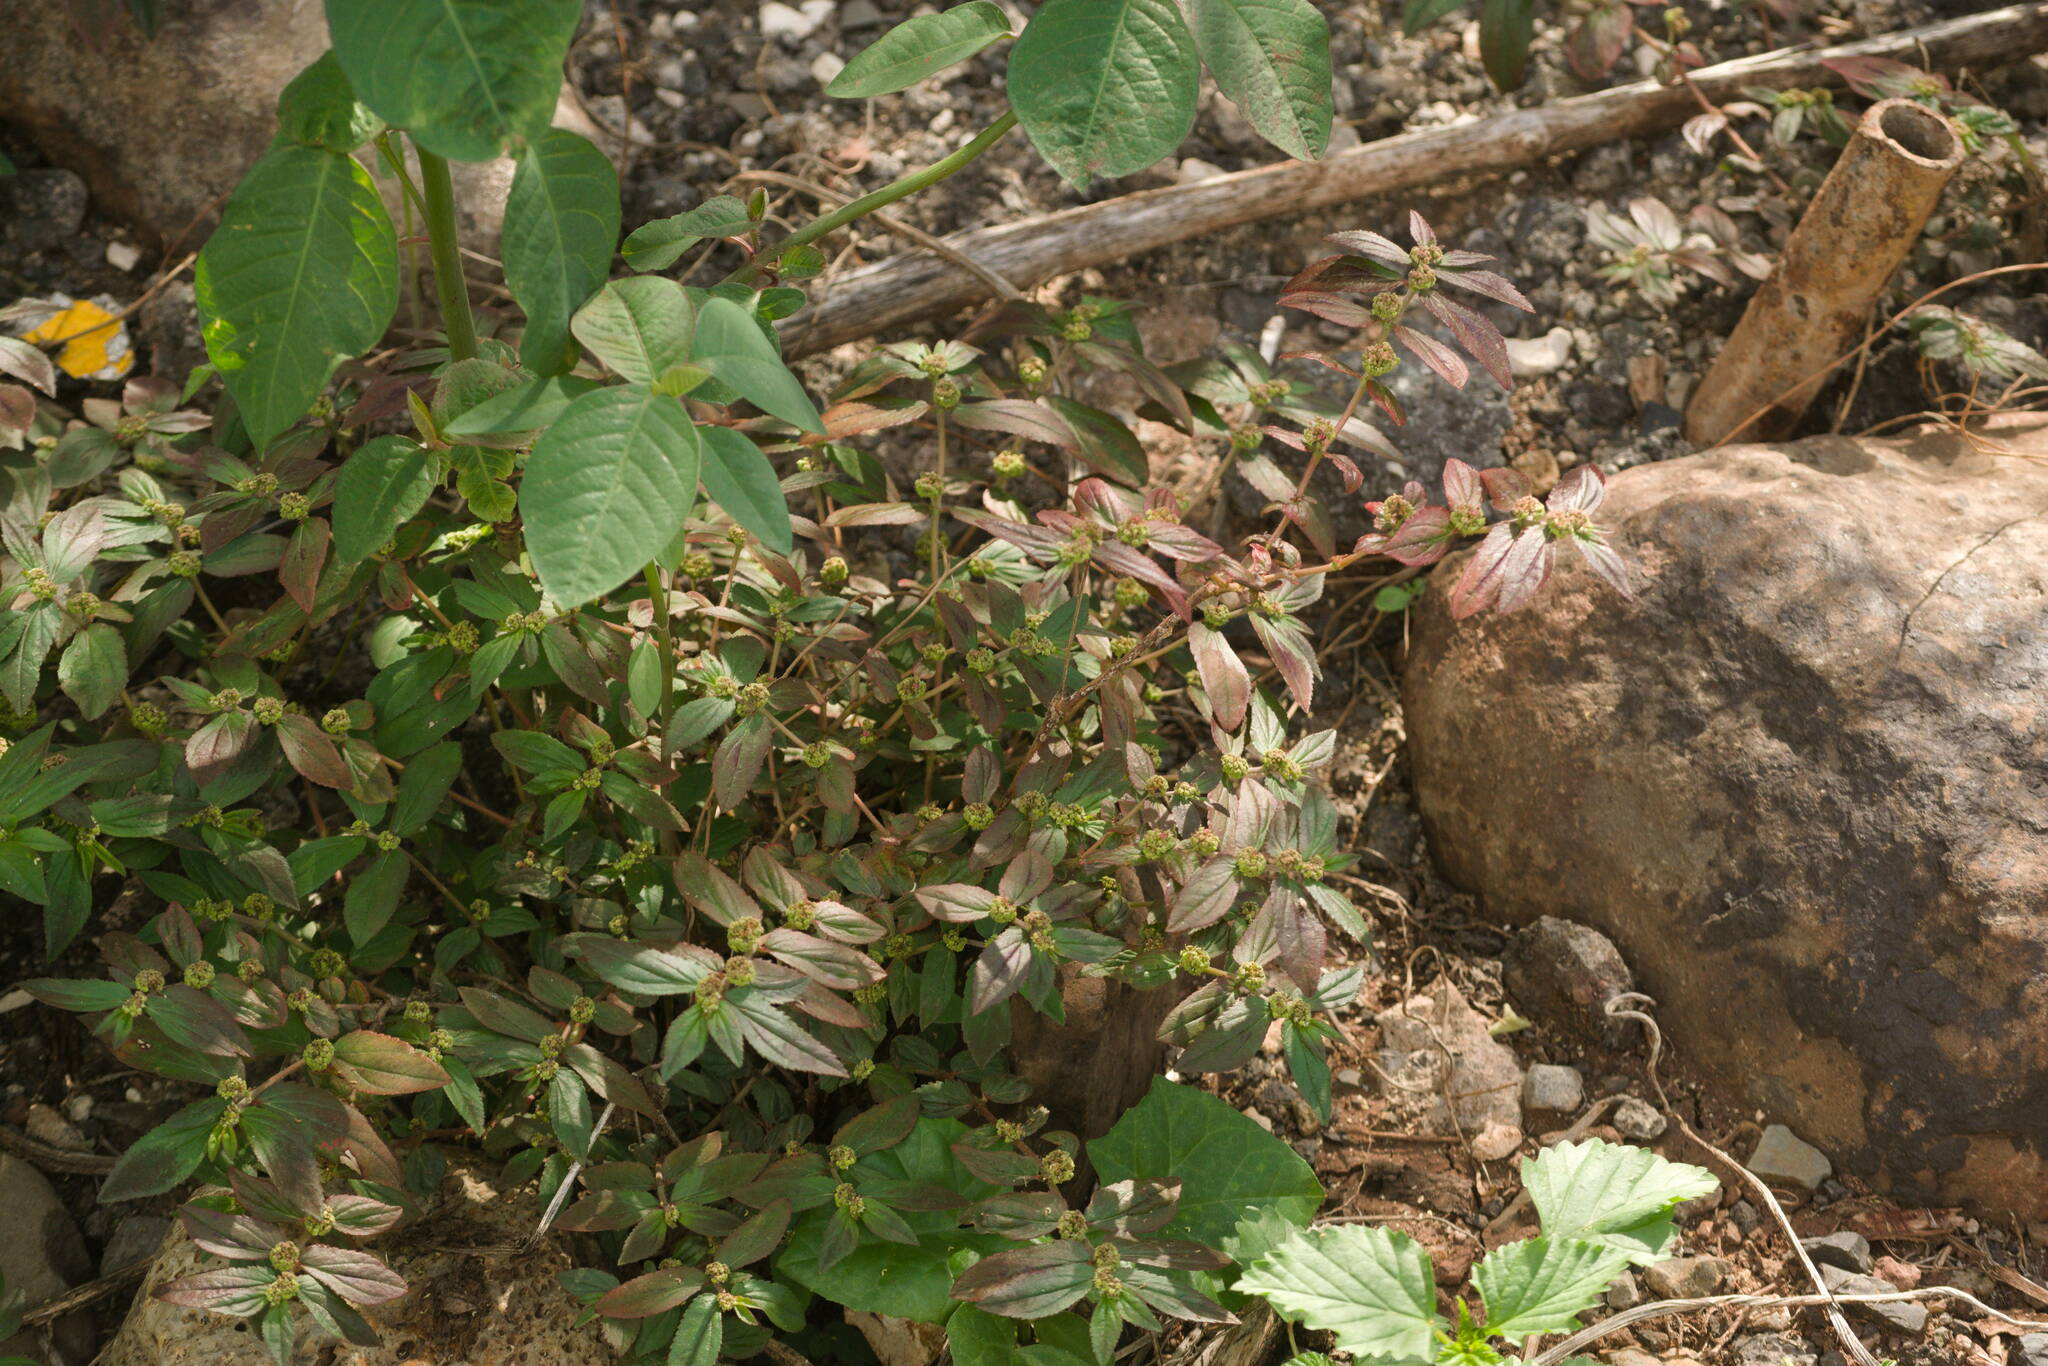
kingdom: Plantae
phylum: Tracheophyta
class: Magnoliopsida
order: Malpighiales
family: Euphorbiaceae
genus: Euphorbia
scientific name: Euphorbia hirta
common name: Pillpod sandmat
